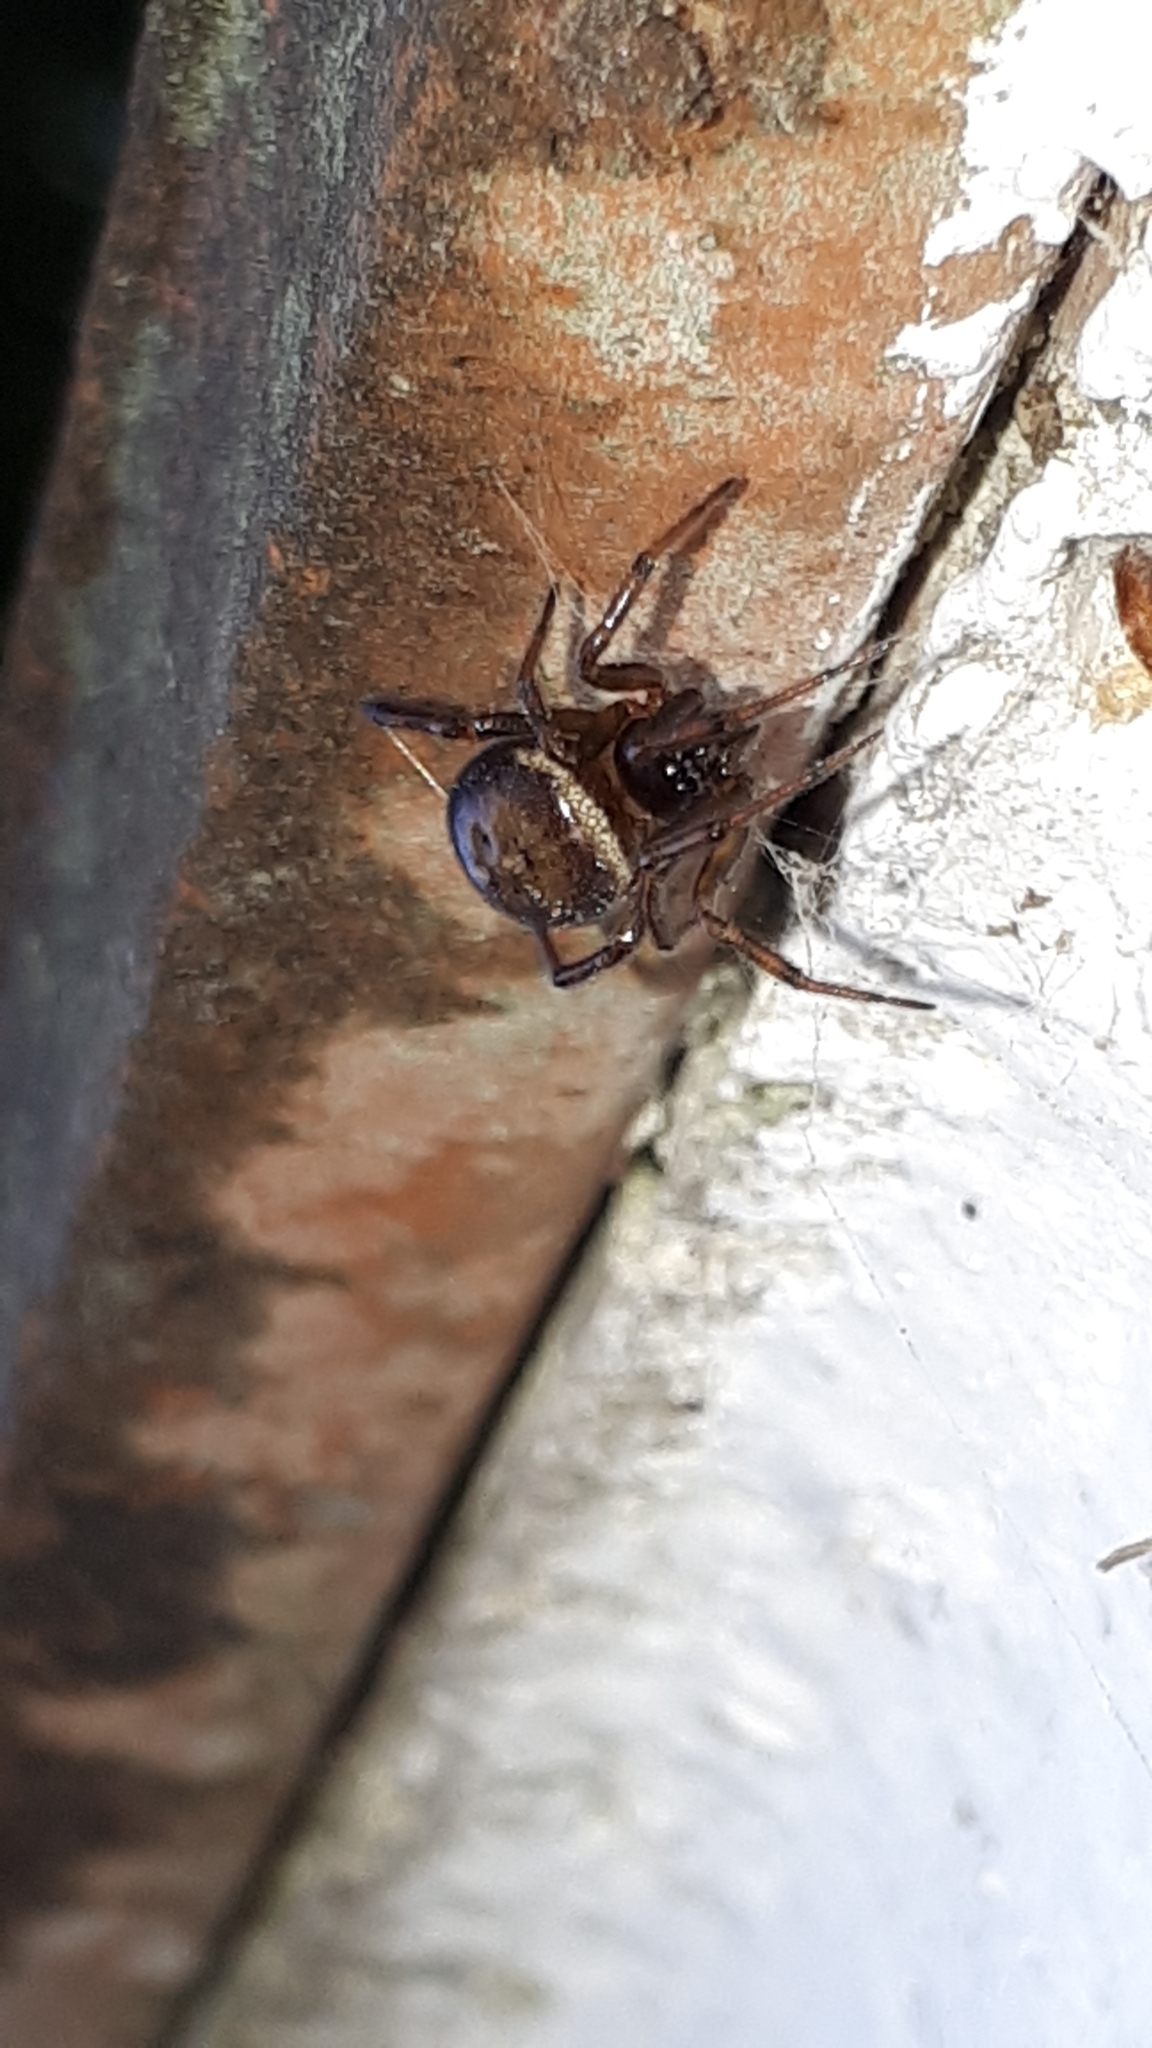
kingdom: Animalia
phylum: Arthropoda
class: Arachnida
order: Araneae
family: Theridiidae
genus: Steatoda
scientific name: Steatoda bipunctata
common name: False widow
